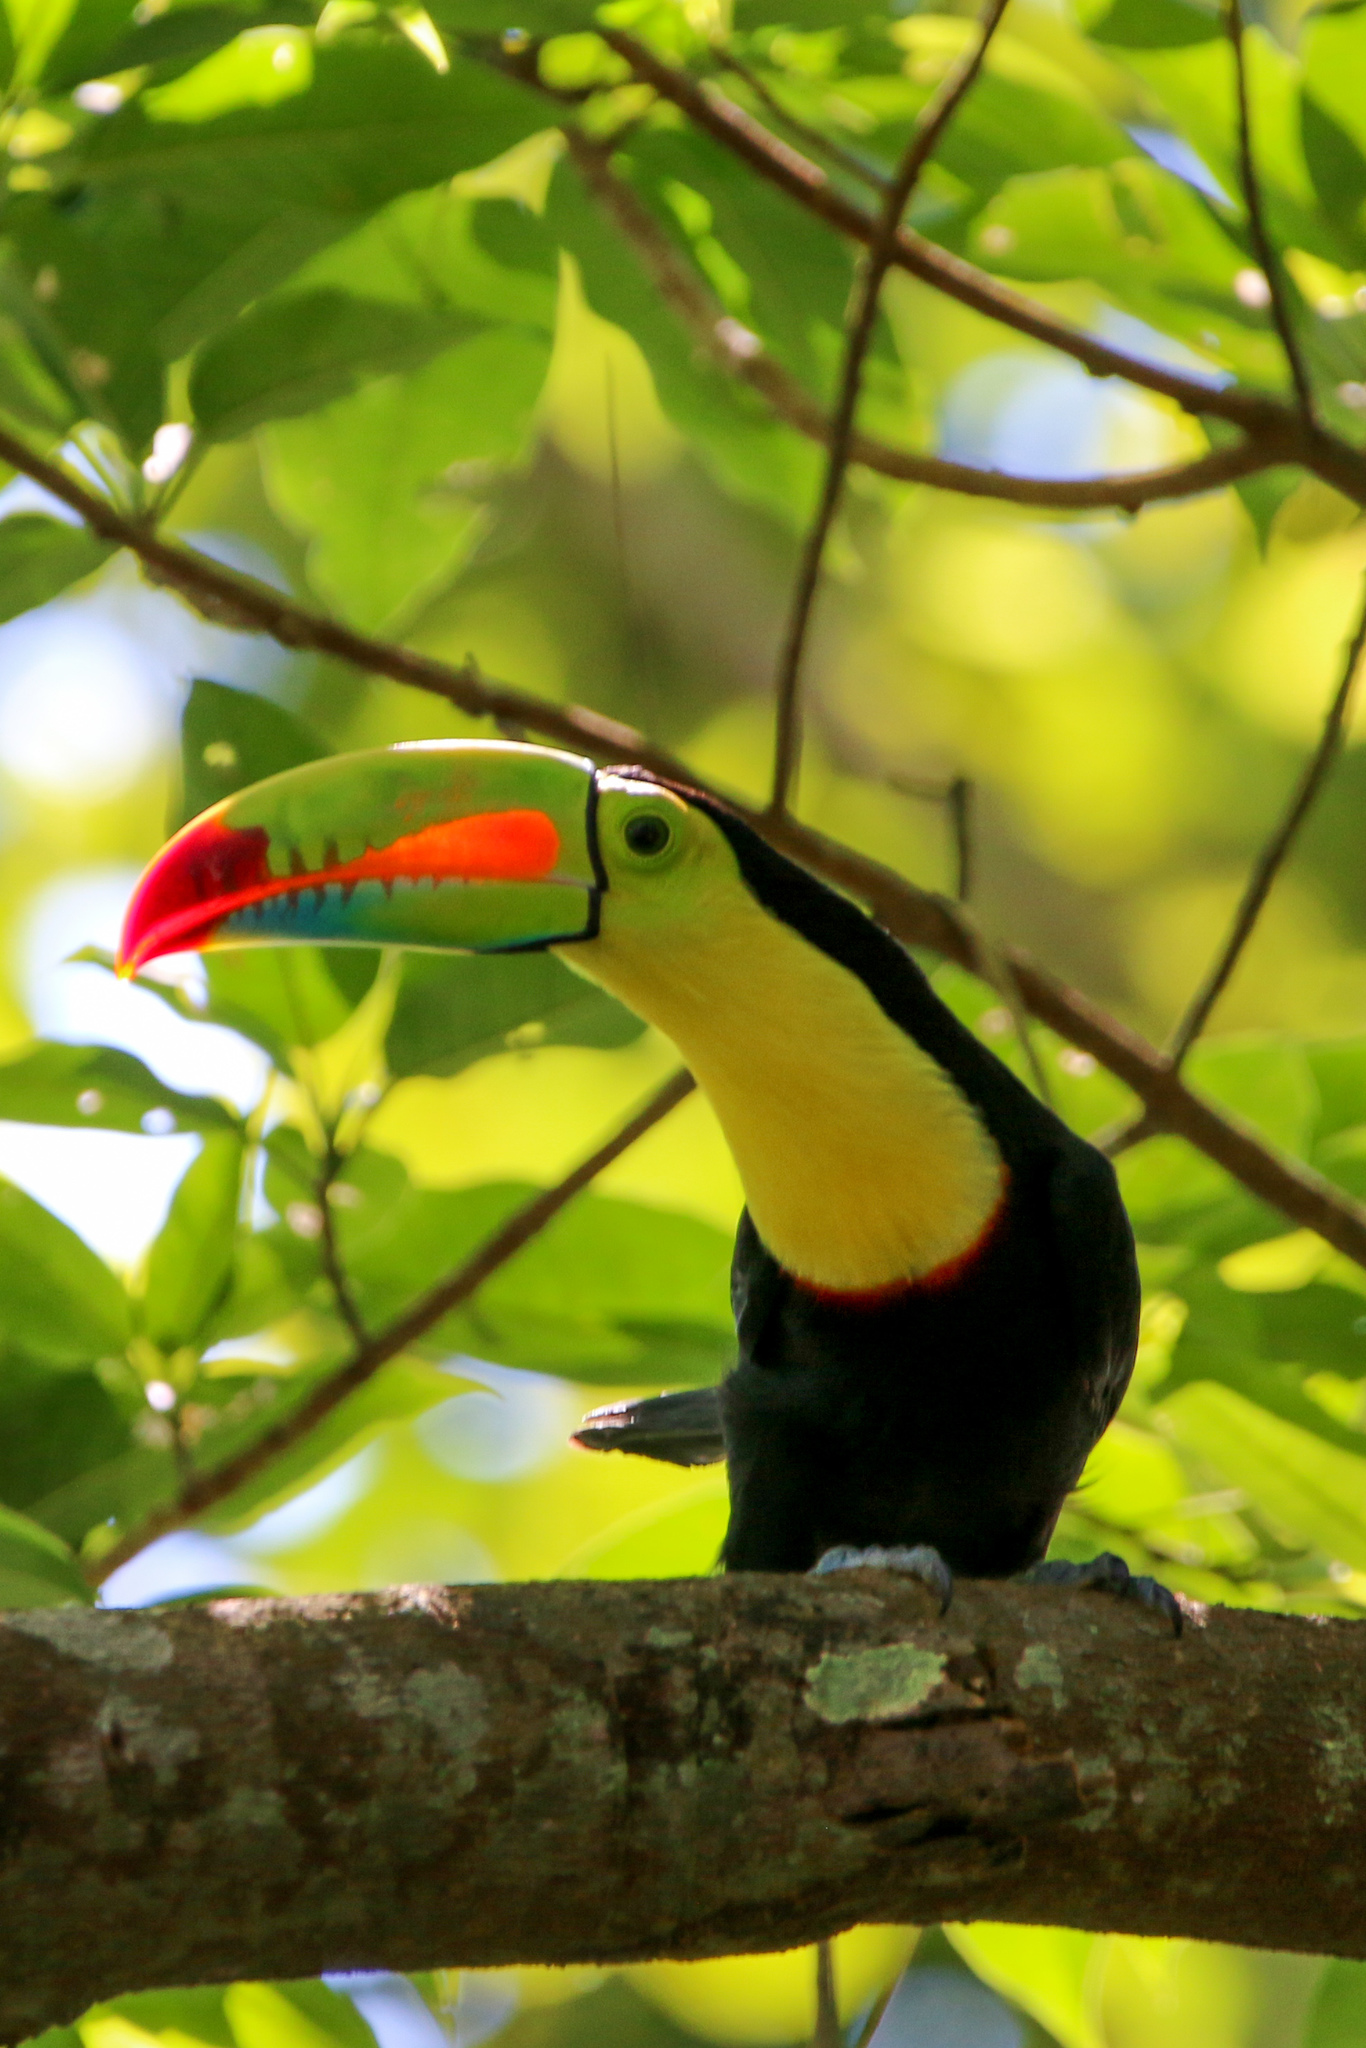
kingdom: Animalia
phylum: Chordata
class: Aves
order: Piciformes
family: Ramphastidae
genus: Ramphastos
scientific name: Ramphastos sulfuratus
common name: Keel-billed toucan
